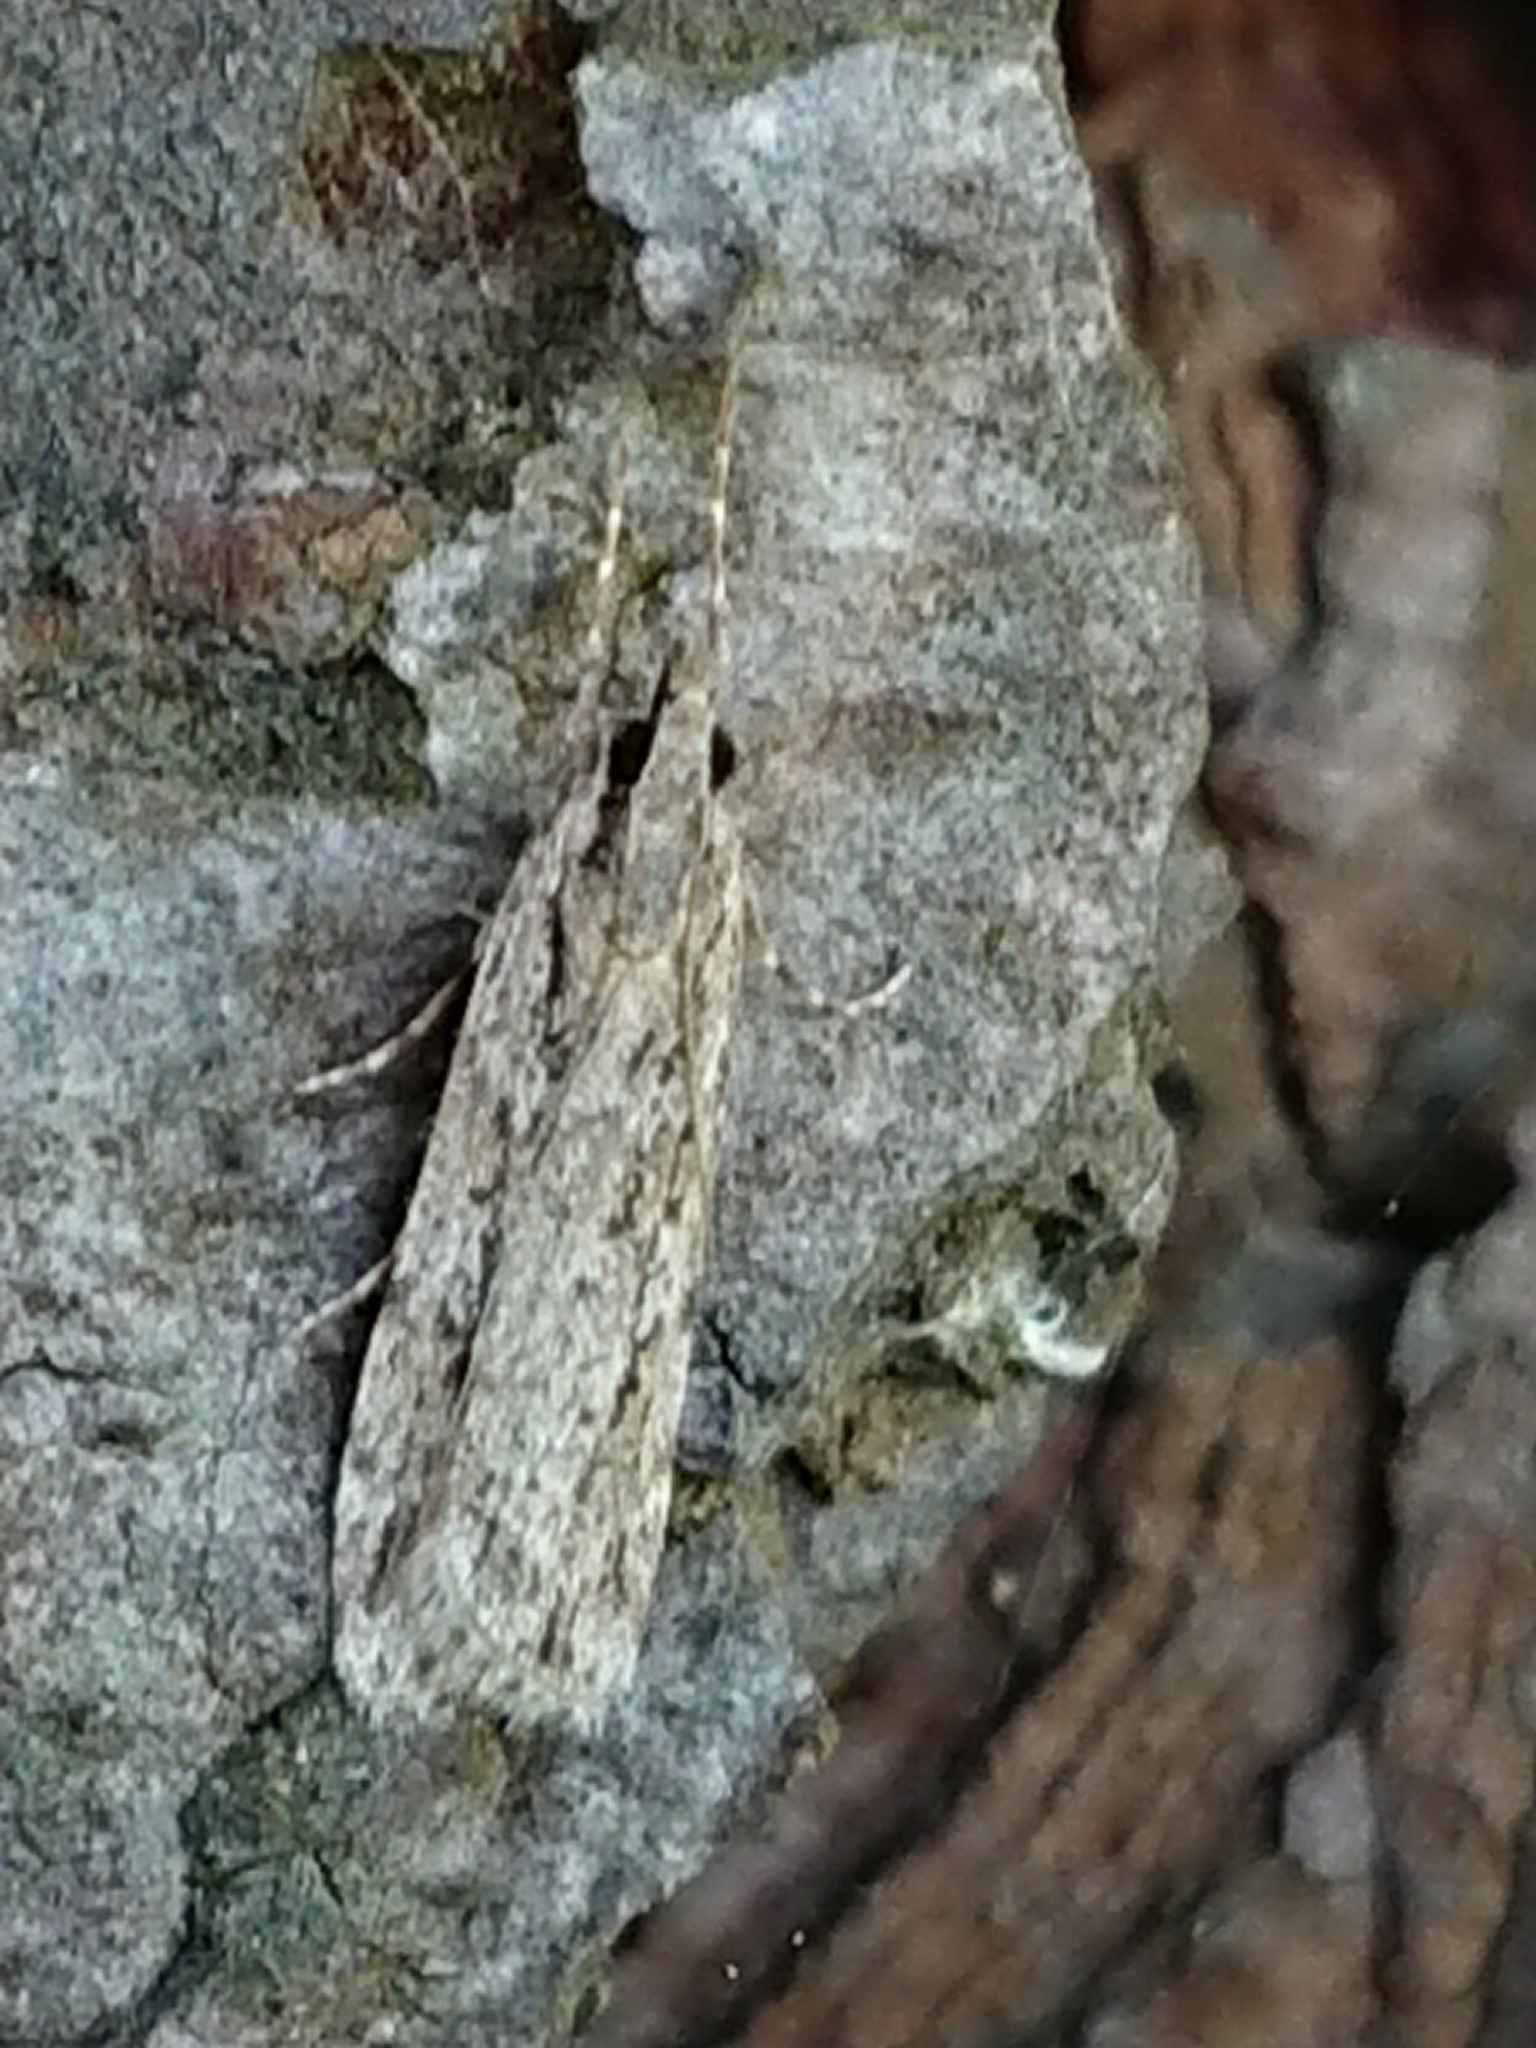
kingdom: Animalia
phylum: Arthropoda
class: Insecta
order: Lepidoptera
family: Crambidae
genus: Scoparia
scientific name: Scoparia chalicodes
